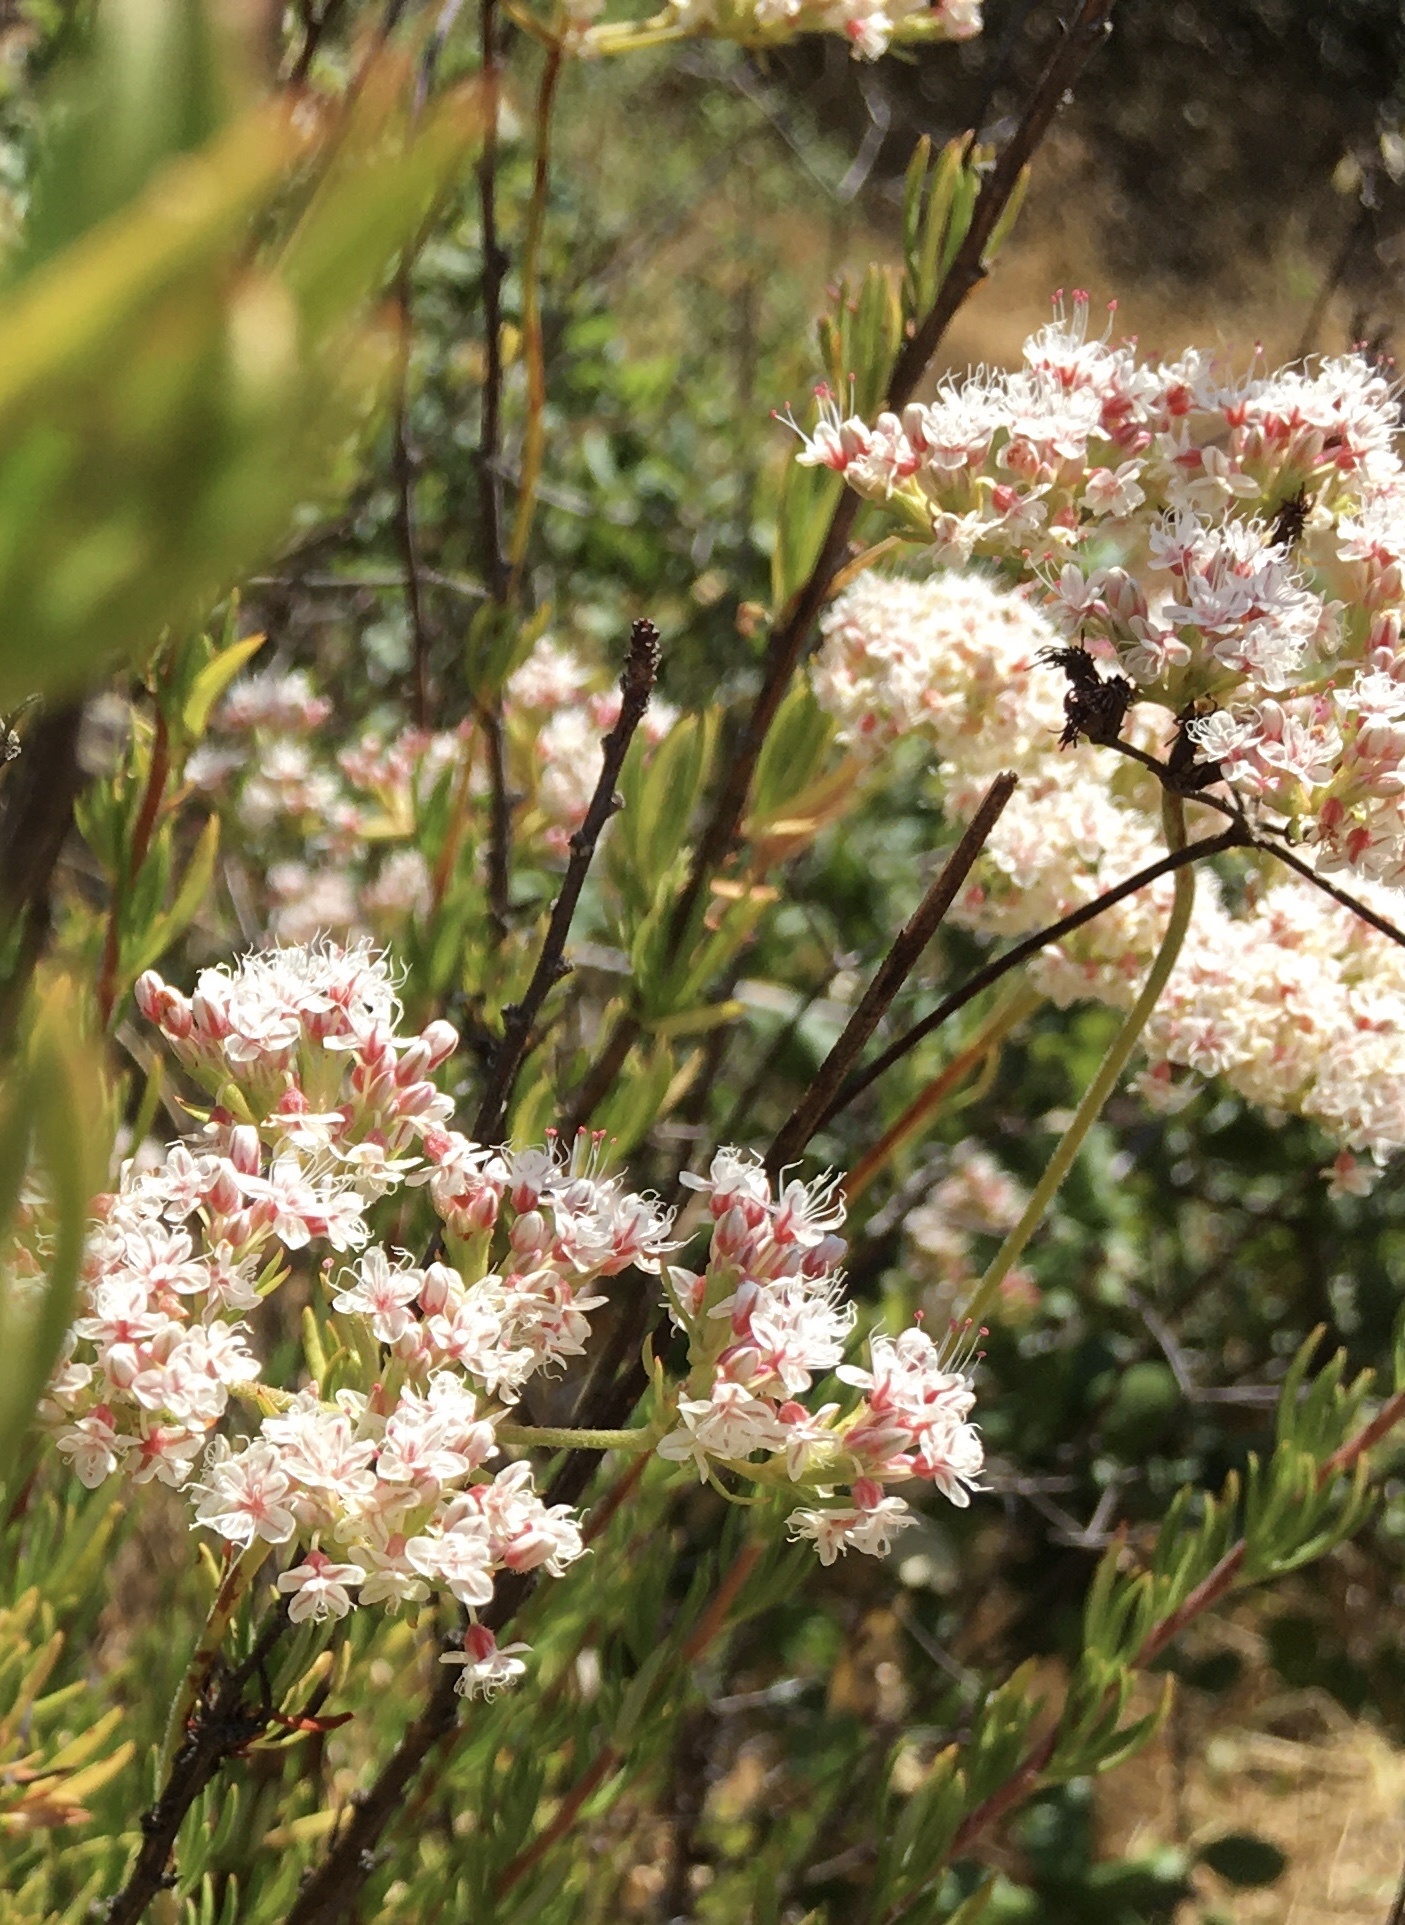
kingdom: Plantae
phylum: Tracheophyta
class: Magnoliopsida
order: Caryophyllales
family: Polygonaceae
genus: Eriogonum
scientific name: Eriogonum fasciculatum
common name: California wild buckwheat
